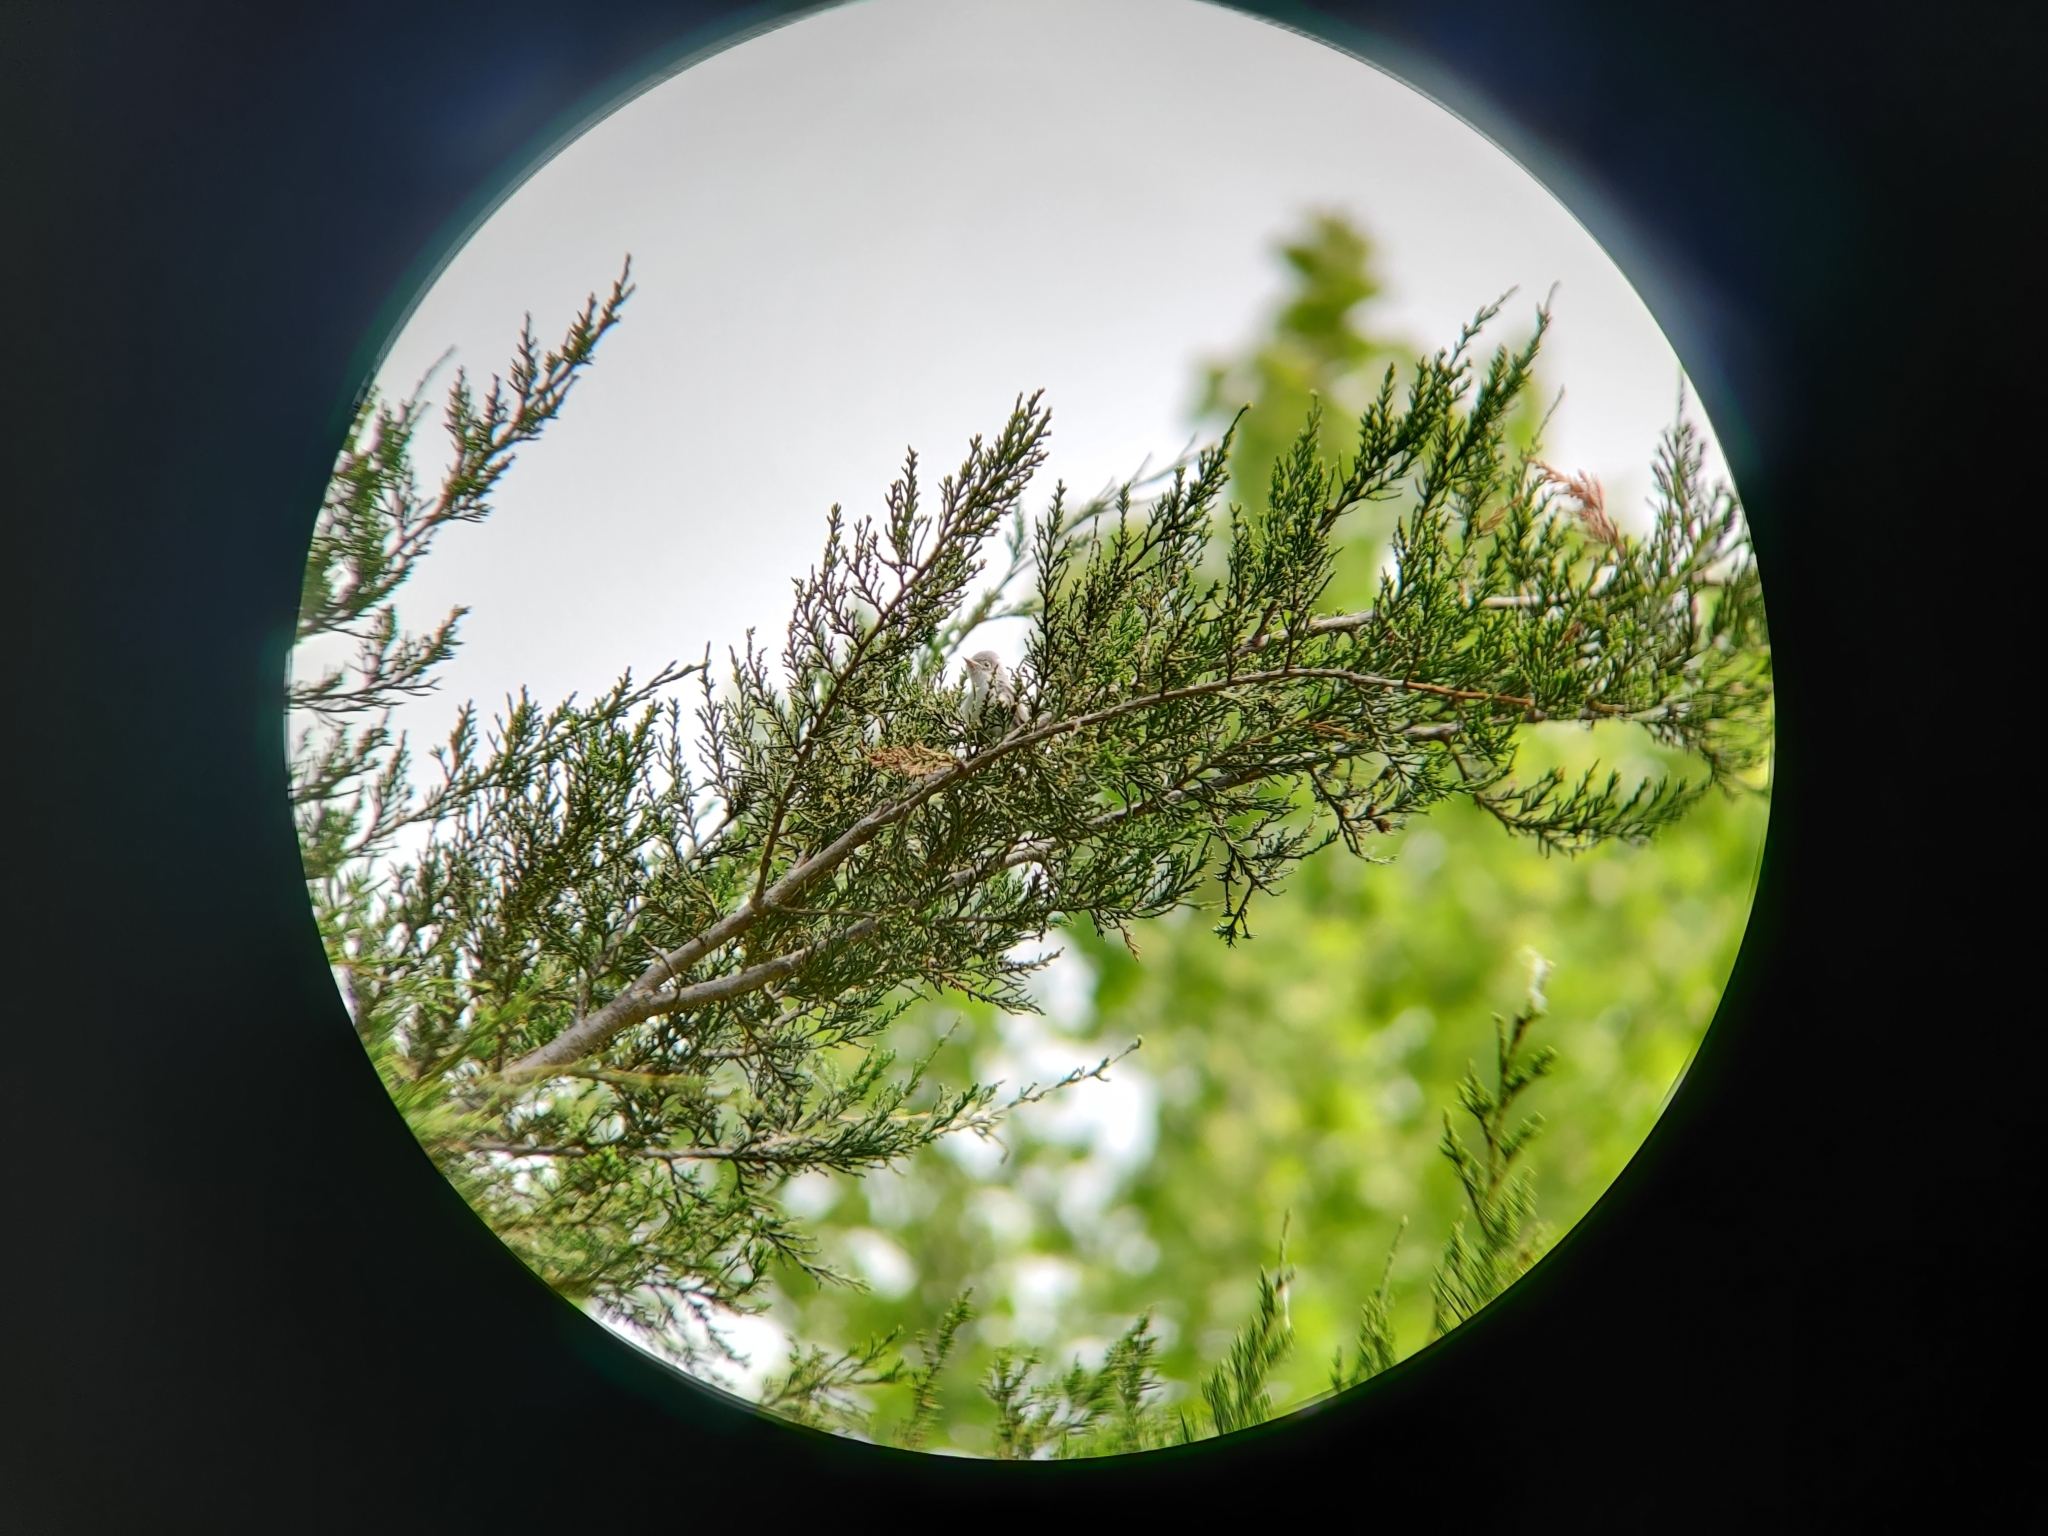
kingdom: Animalia
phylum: Chordata
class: Aves
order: Passeriformes
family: Polioptilidae
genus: Polioptila
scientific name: Polioptila caerulea
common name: Blue-gray gnatcatcher
